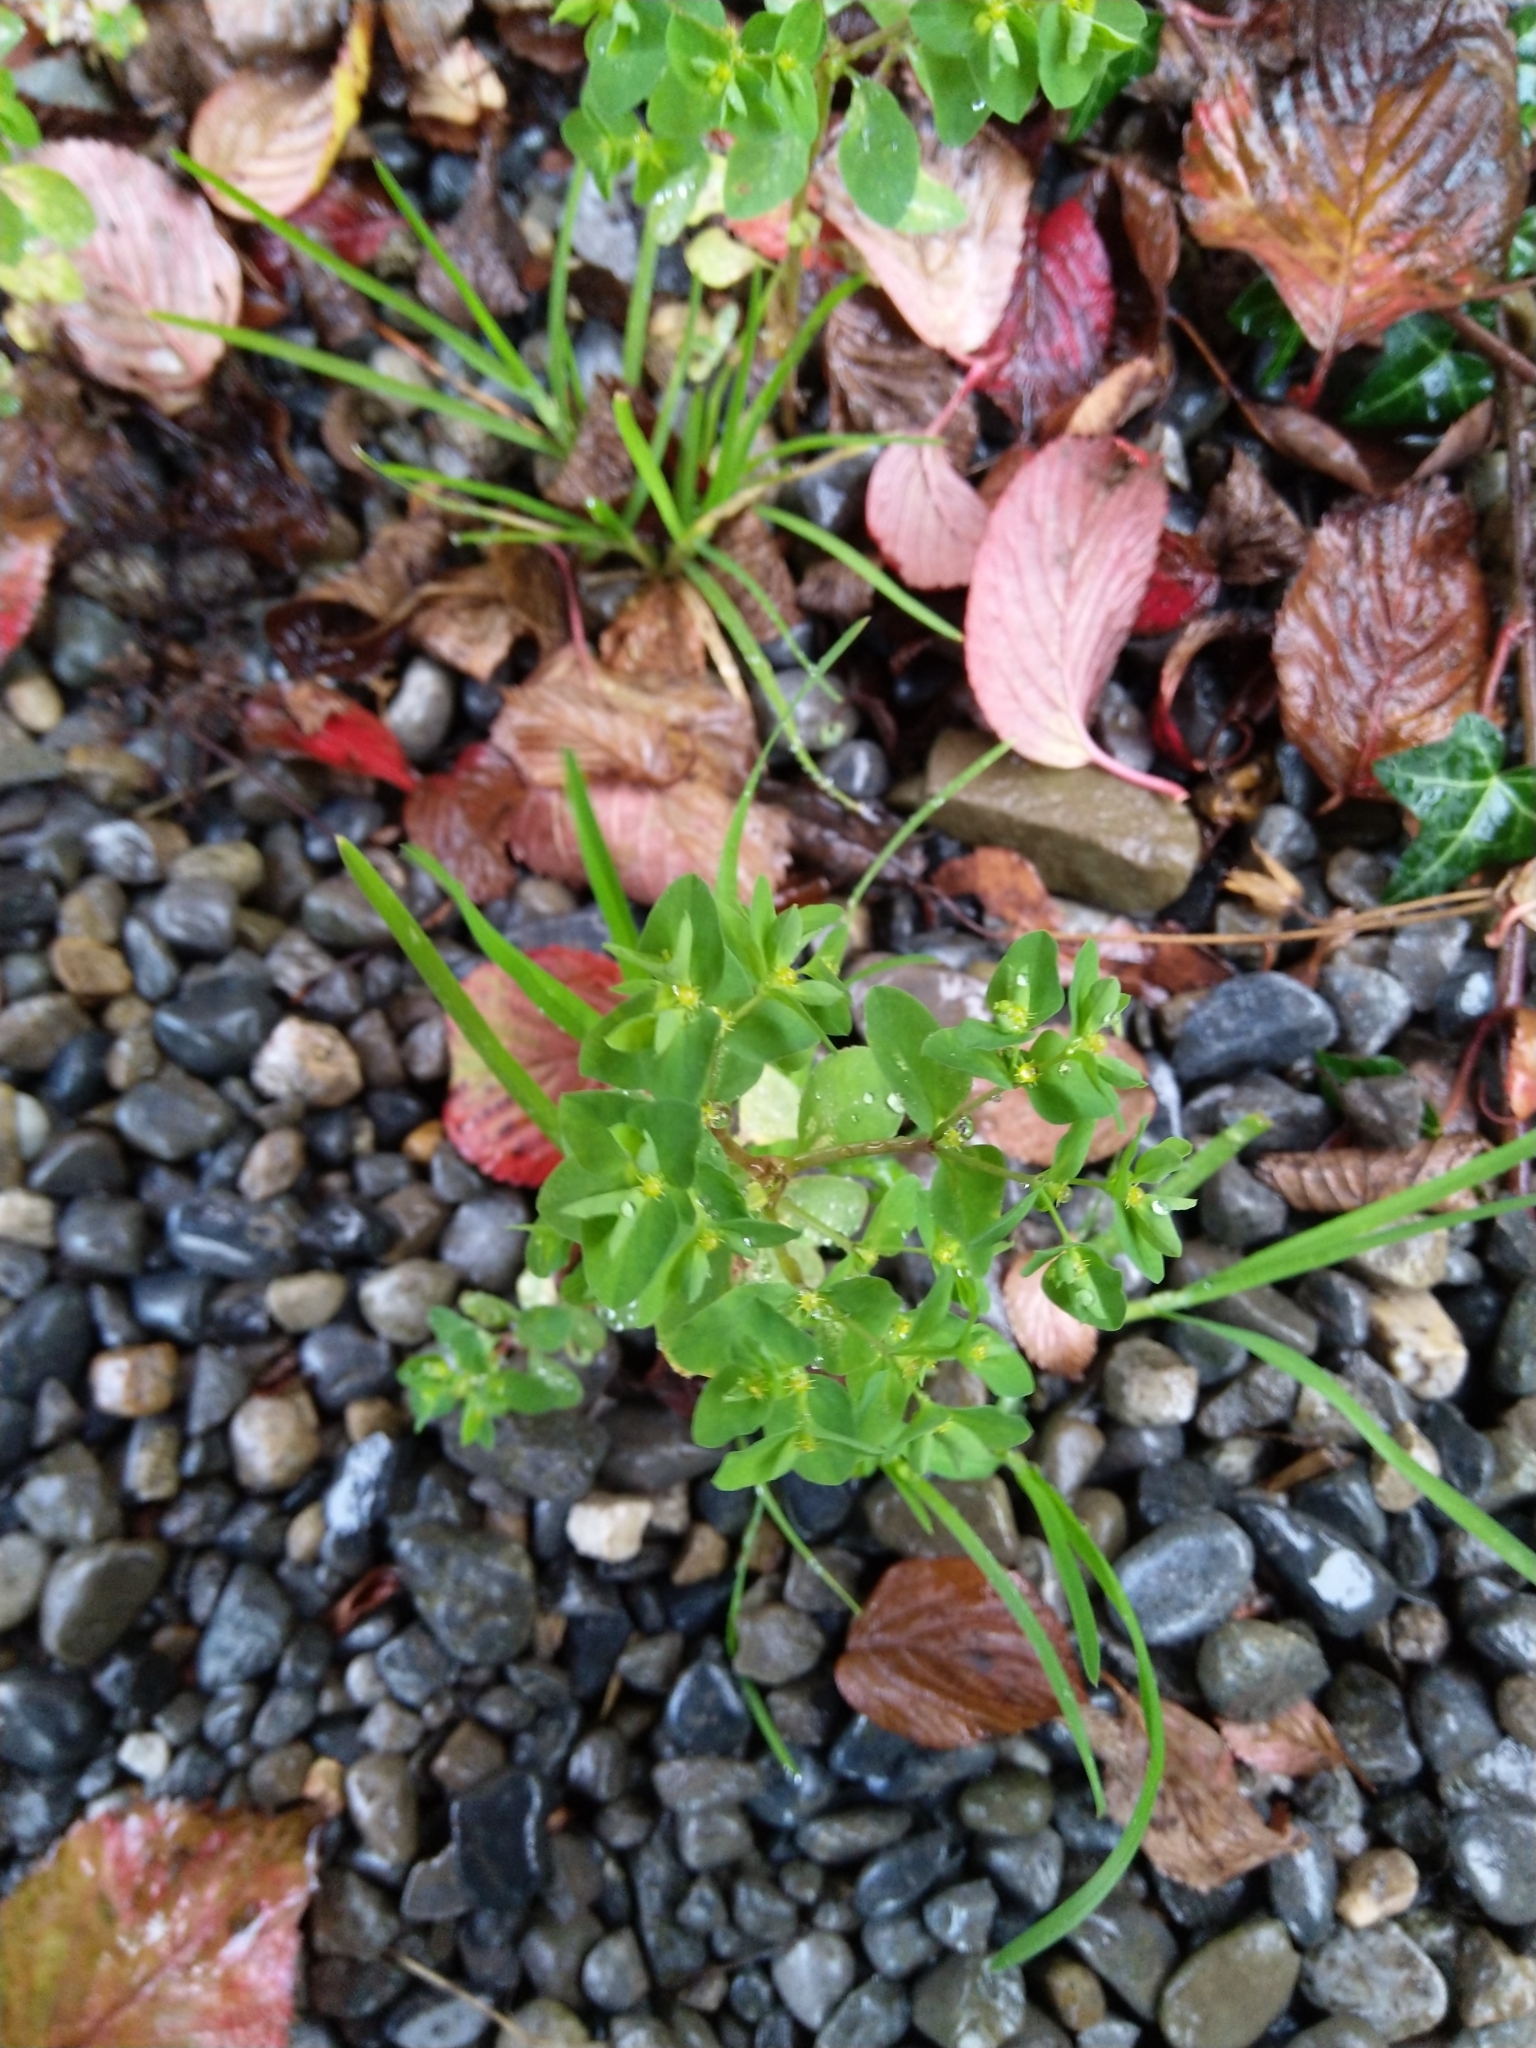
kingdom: Plantae
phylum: Tracheophyta
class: Magnoliopsida
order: Malpighiales
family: Euphorbiaceae
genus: Euphorbia
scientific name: Euphorbia peplus
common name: Petty spurge
